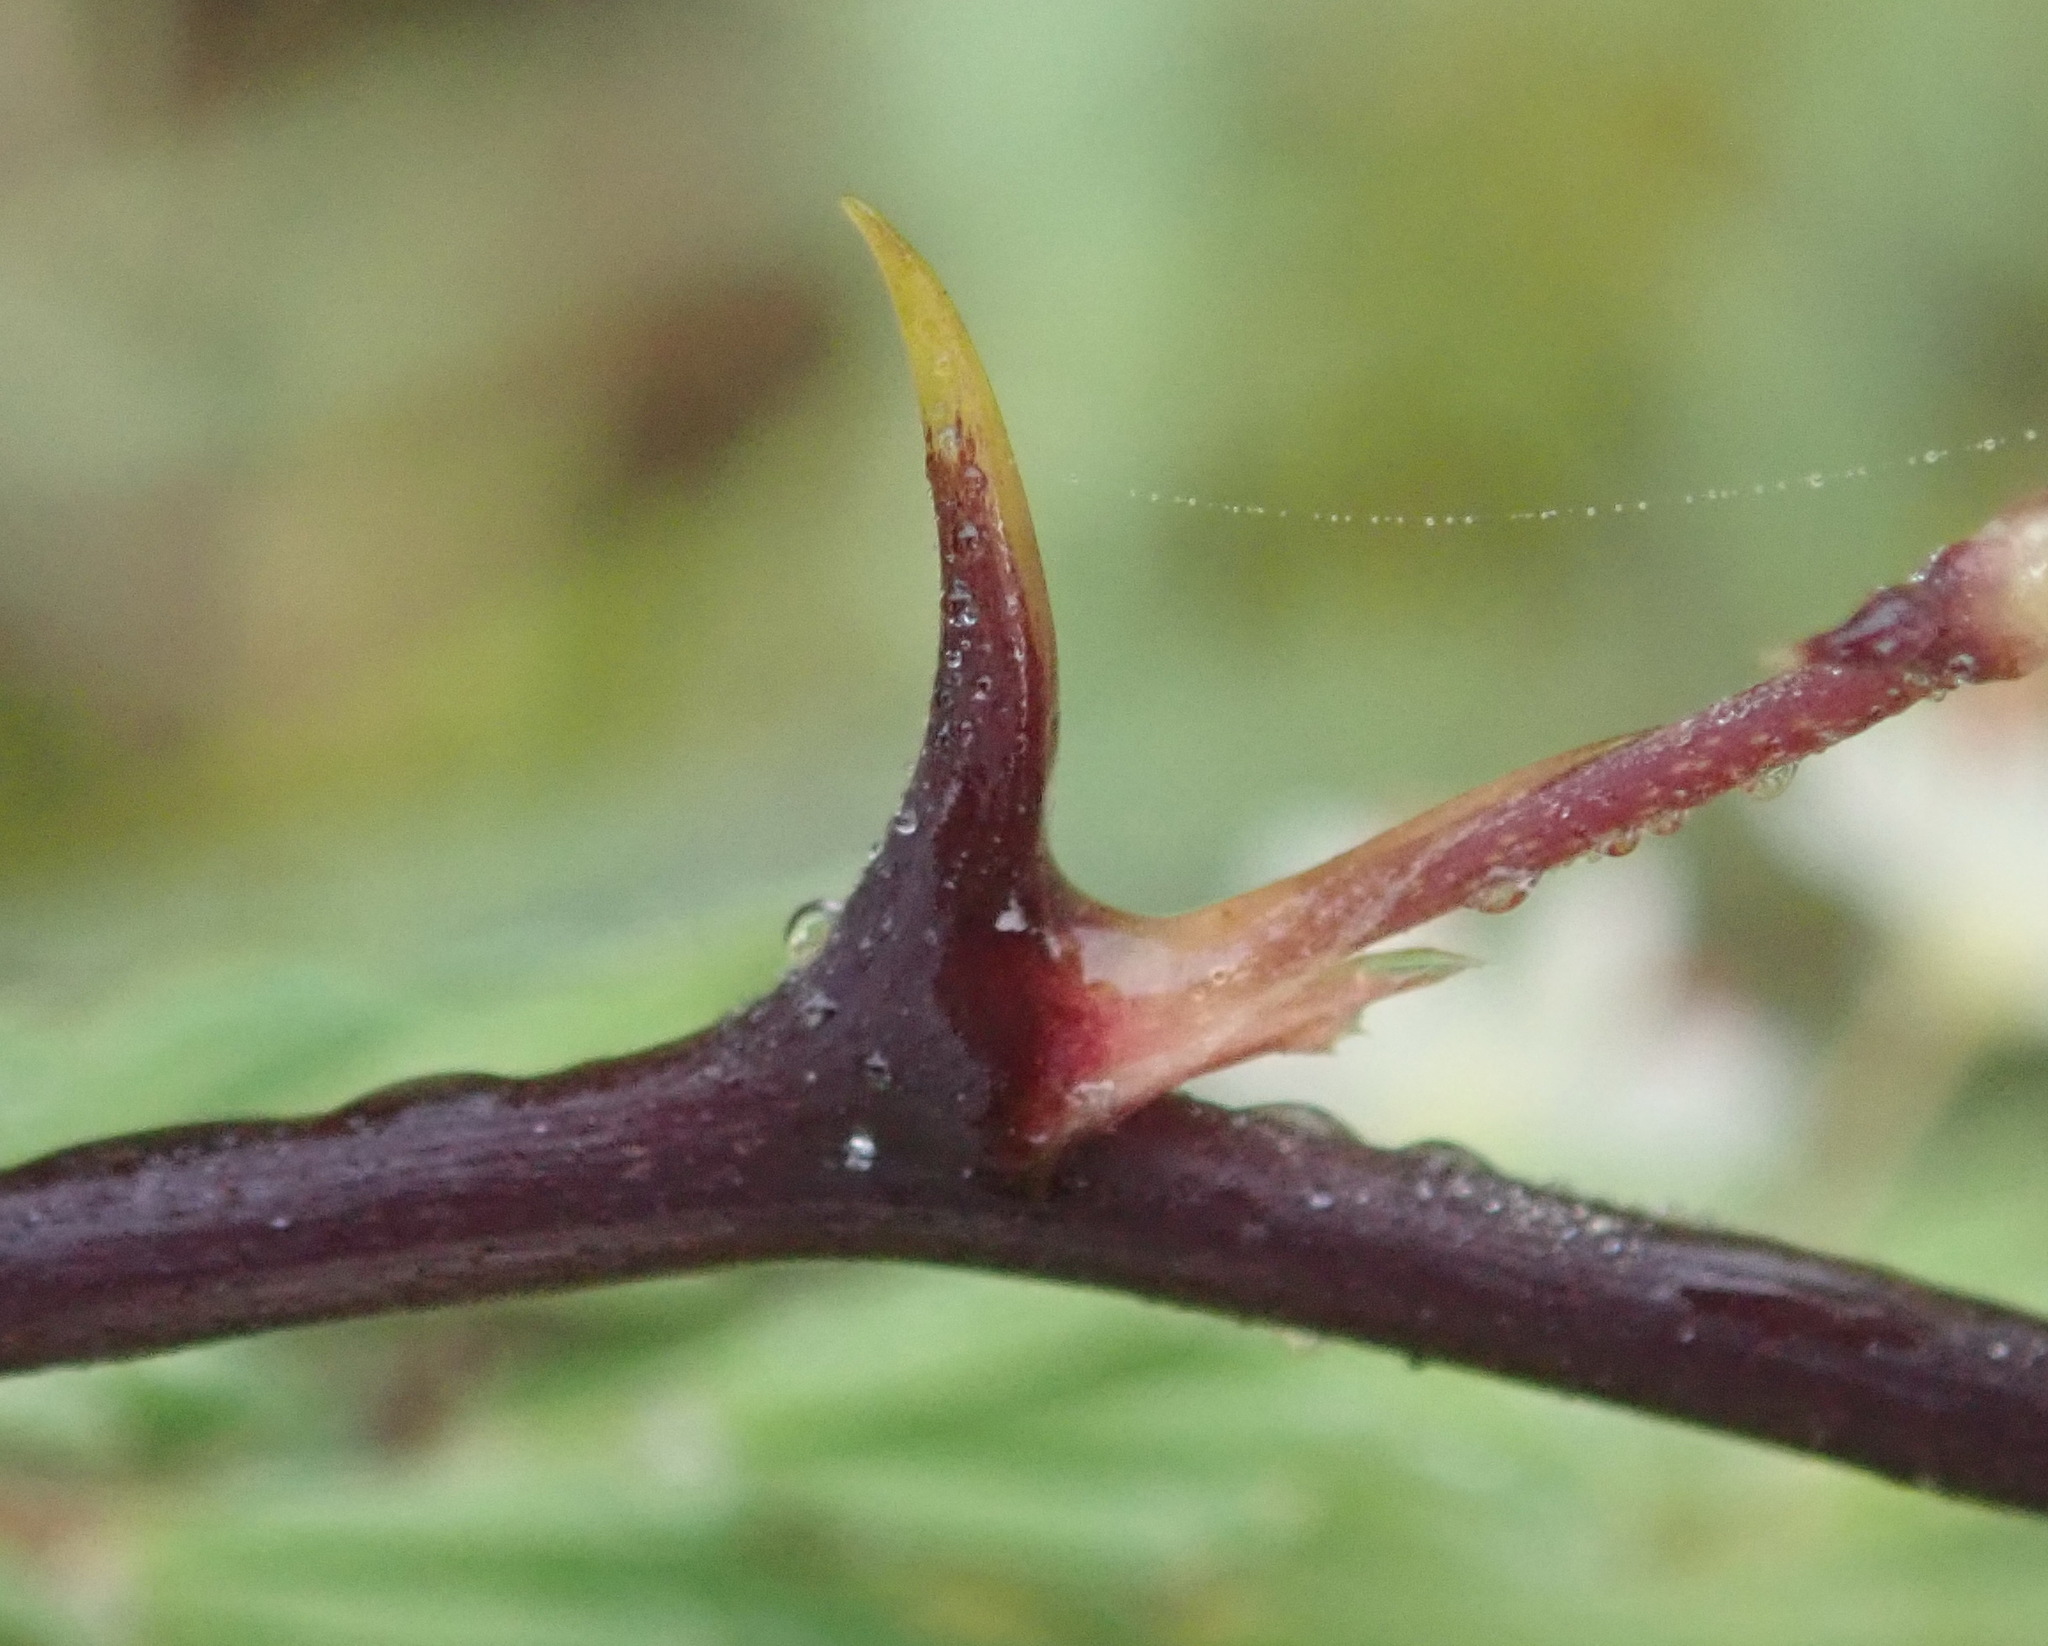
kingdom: Plantae
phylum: Tracheophyta
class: Liliopsida
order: Asparagales
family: Asparagaceae
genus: Asparagus
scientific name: Asparagus rubicundus
